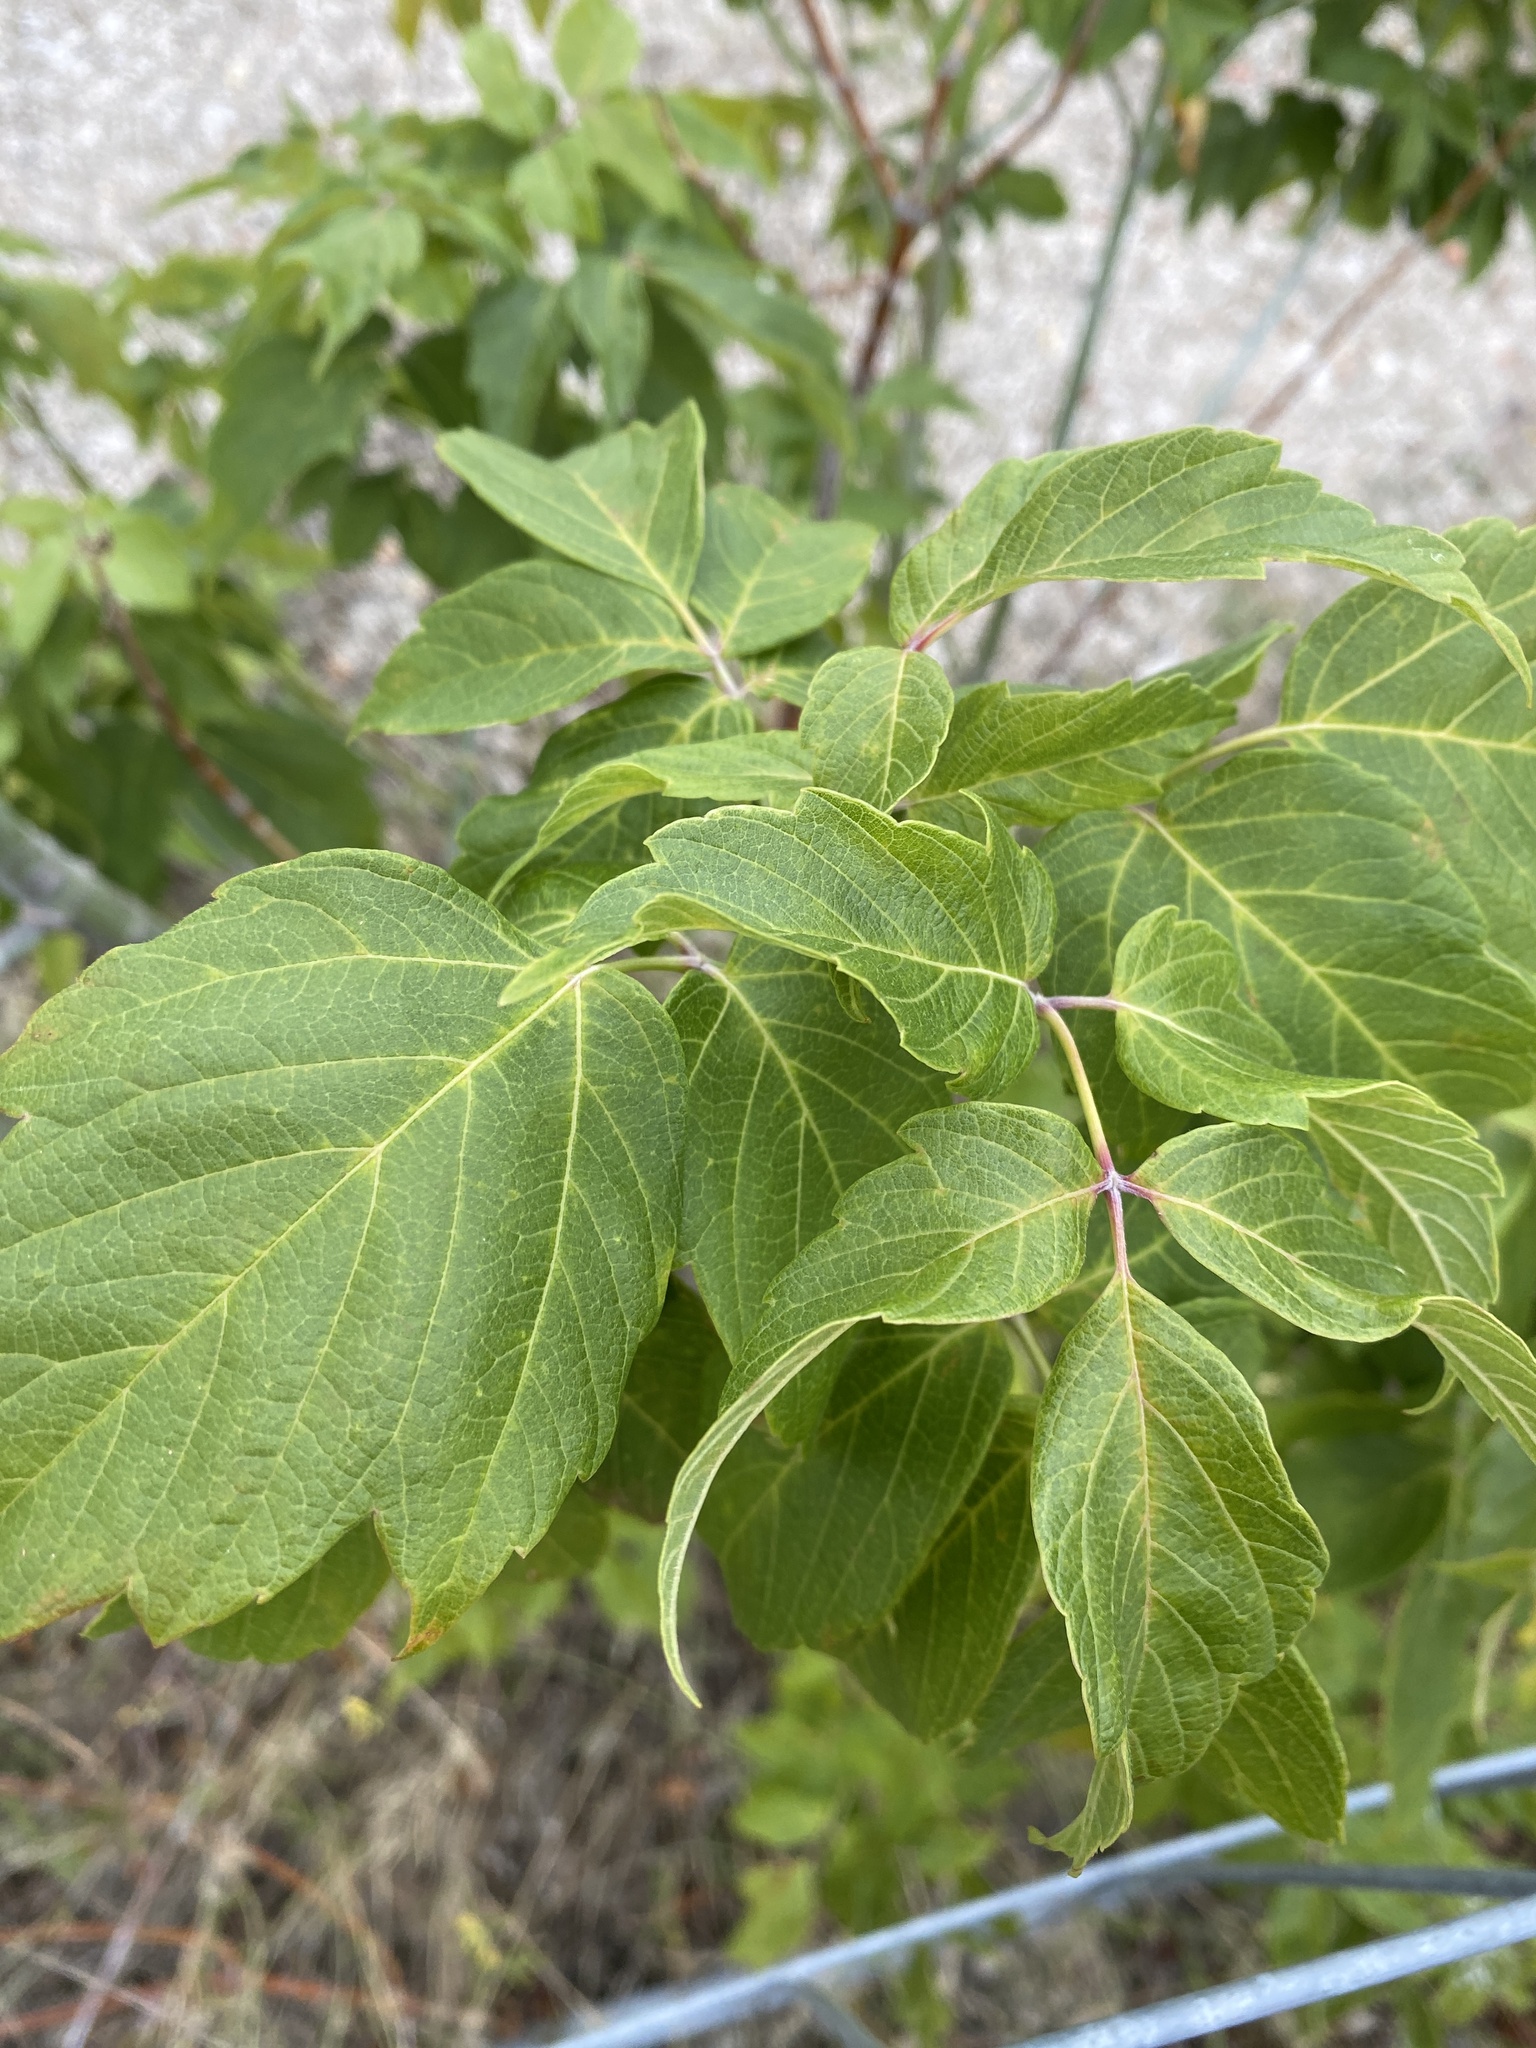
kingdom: Plantae
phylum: Tracheophyta
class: Magnoliopsida
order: Sapindales
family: Sapindaceae
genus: Acer
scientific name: Acer negundo
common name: Ashleaf maple
